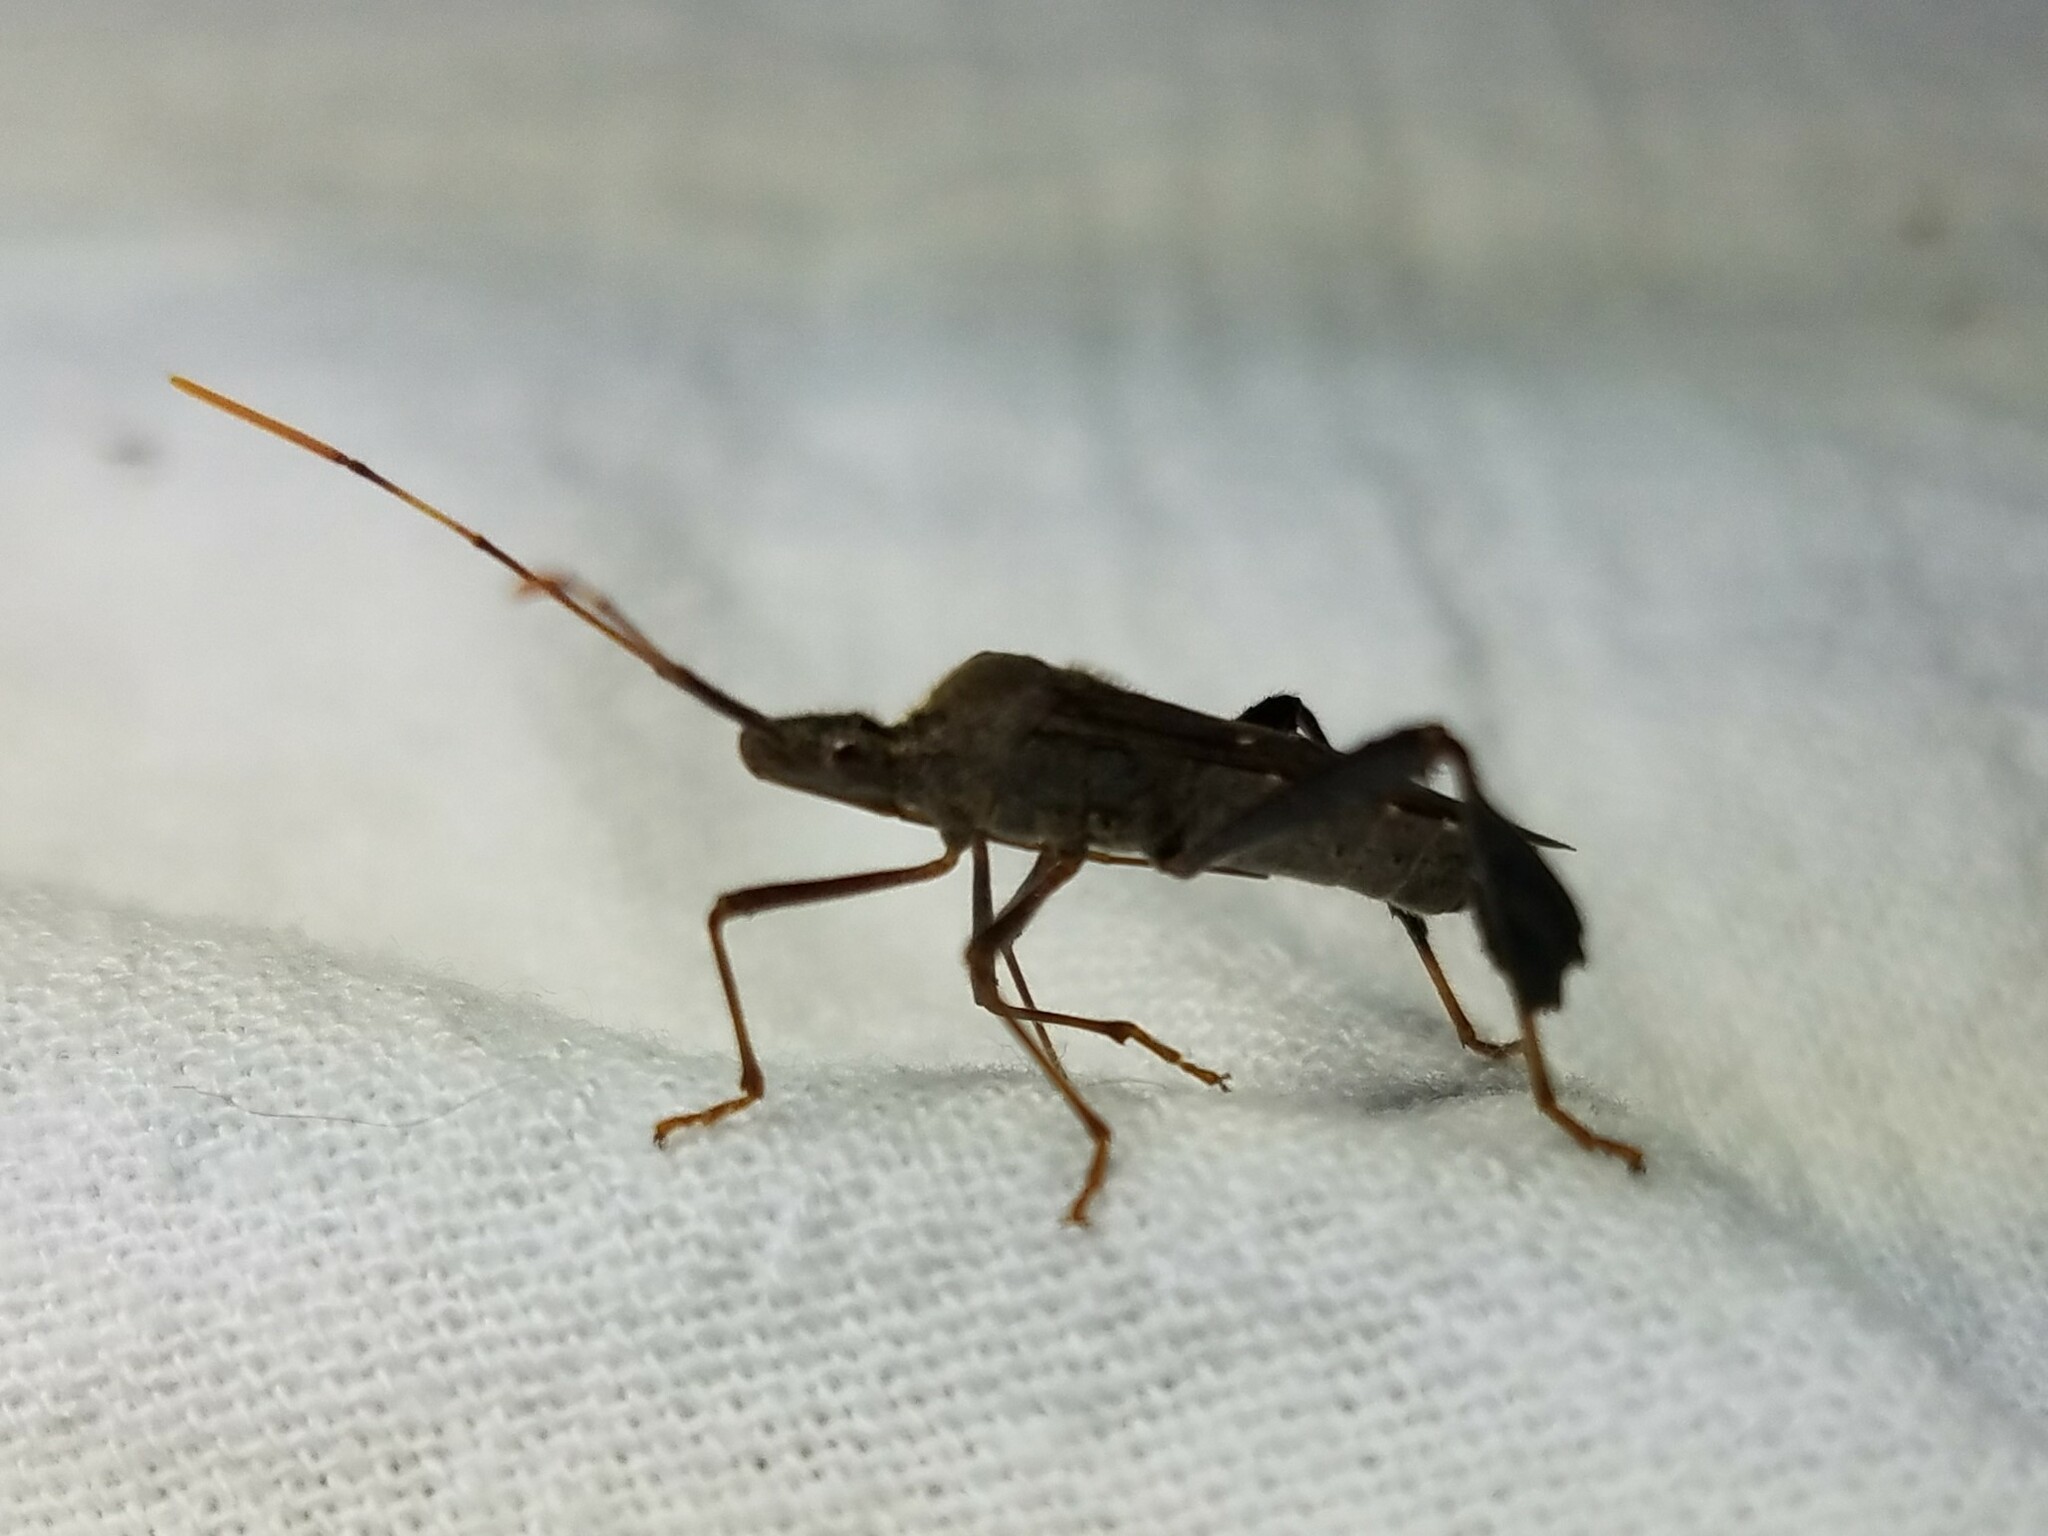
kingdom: Animalia
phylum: Arthropoda
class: Insecta
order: Hemiptera
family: Coreidae
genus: Leptoglossus
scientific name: Leptoglossus oppositus
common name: Northern leaf-footed bug
